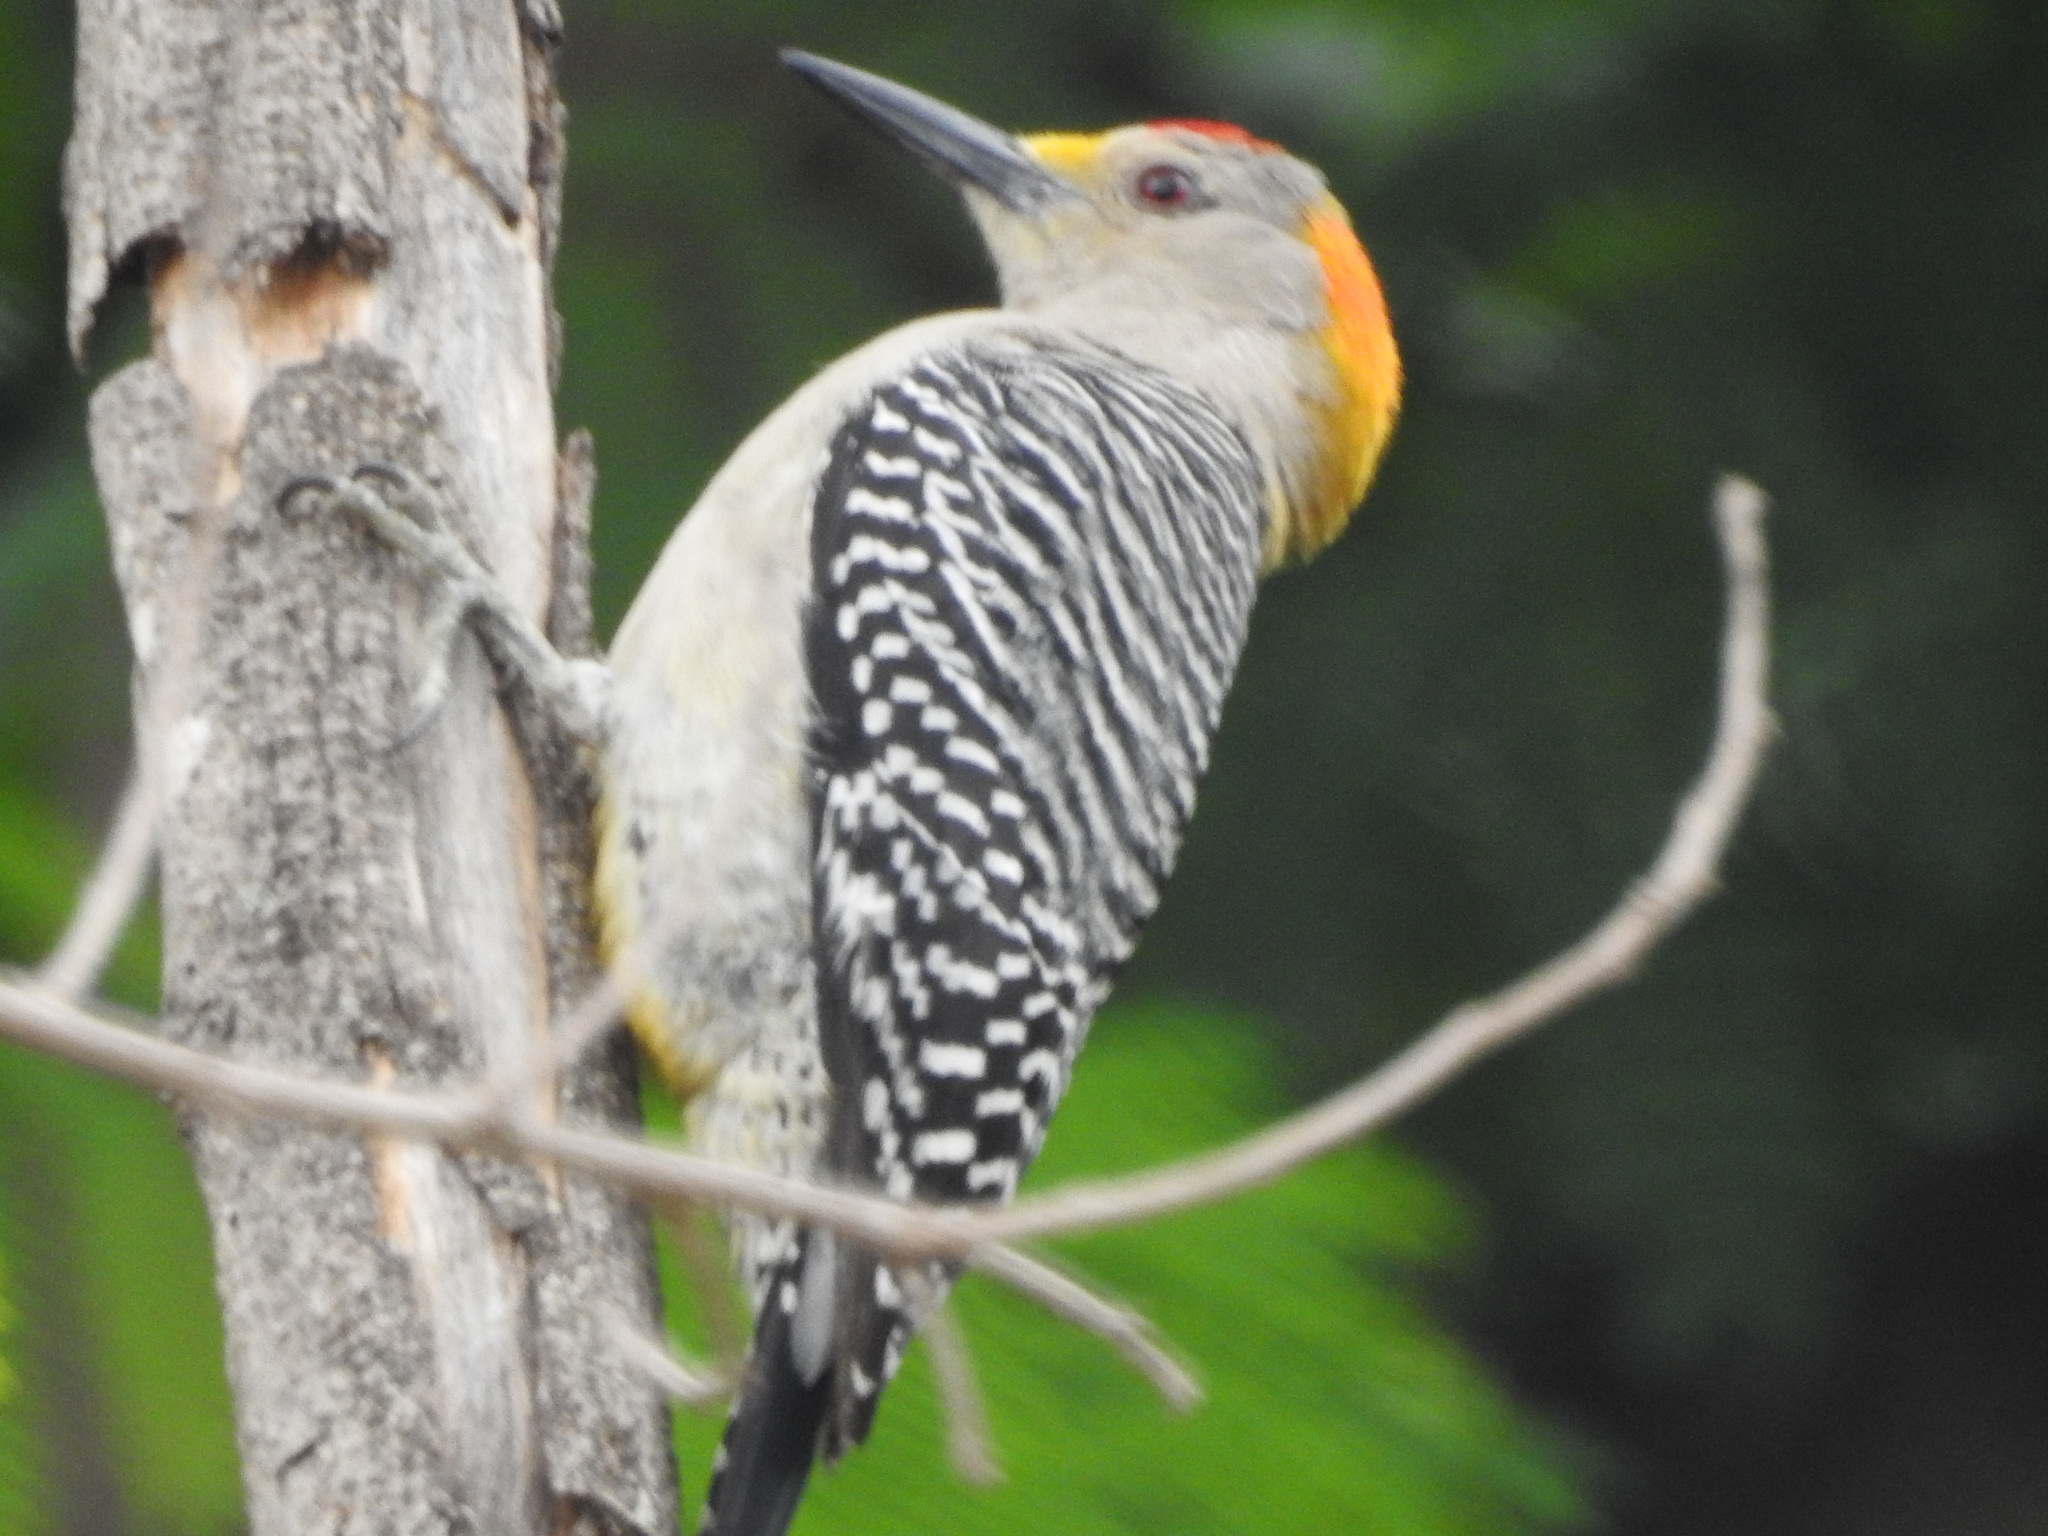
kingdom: Animalia
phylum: Chordata
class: Aves
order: Piciformes
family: Picidae
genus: Melanerpes
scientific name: Melanerpes aurifrons
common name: Golden-fronted woodpecker
